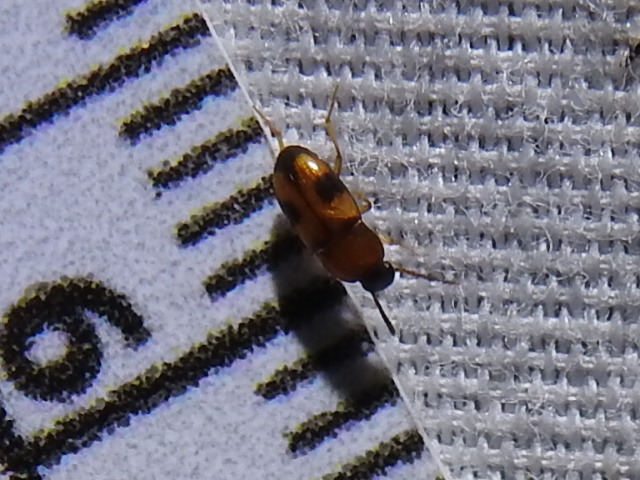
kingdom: Animalia
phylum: Arthropoda
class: Insecta
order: Coleoptera
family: Tenebrionidae
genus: Poecilocrypticus
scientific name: Poecilocrypticus formicophilus
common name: Darkling beetle
